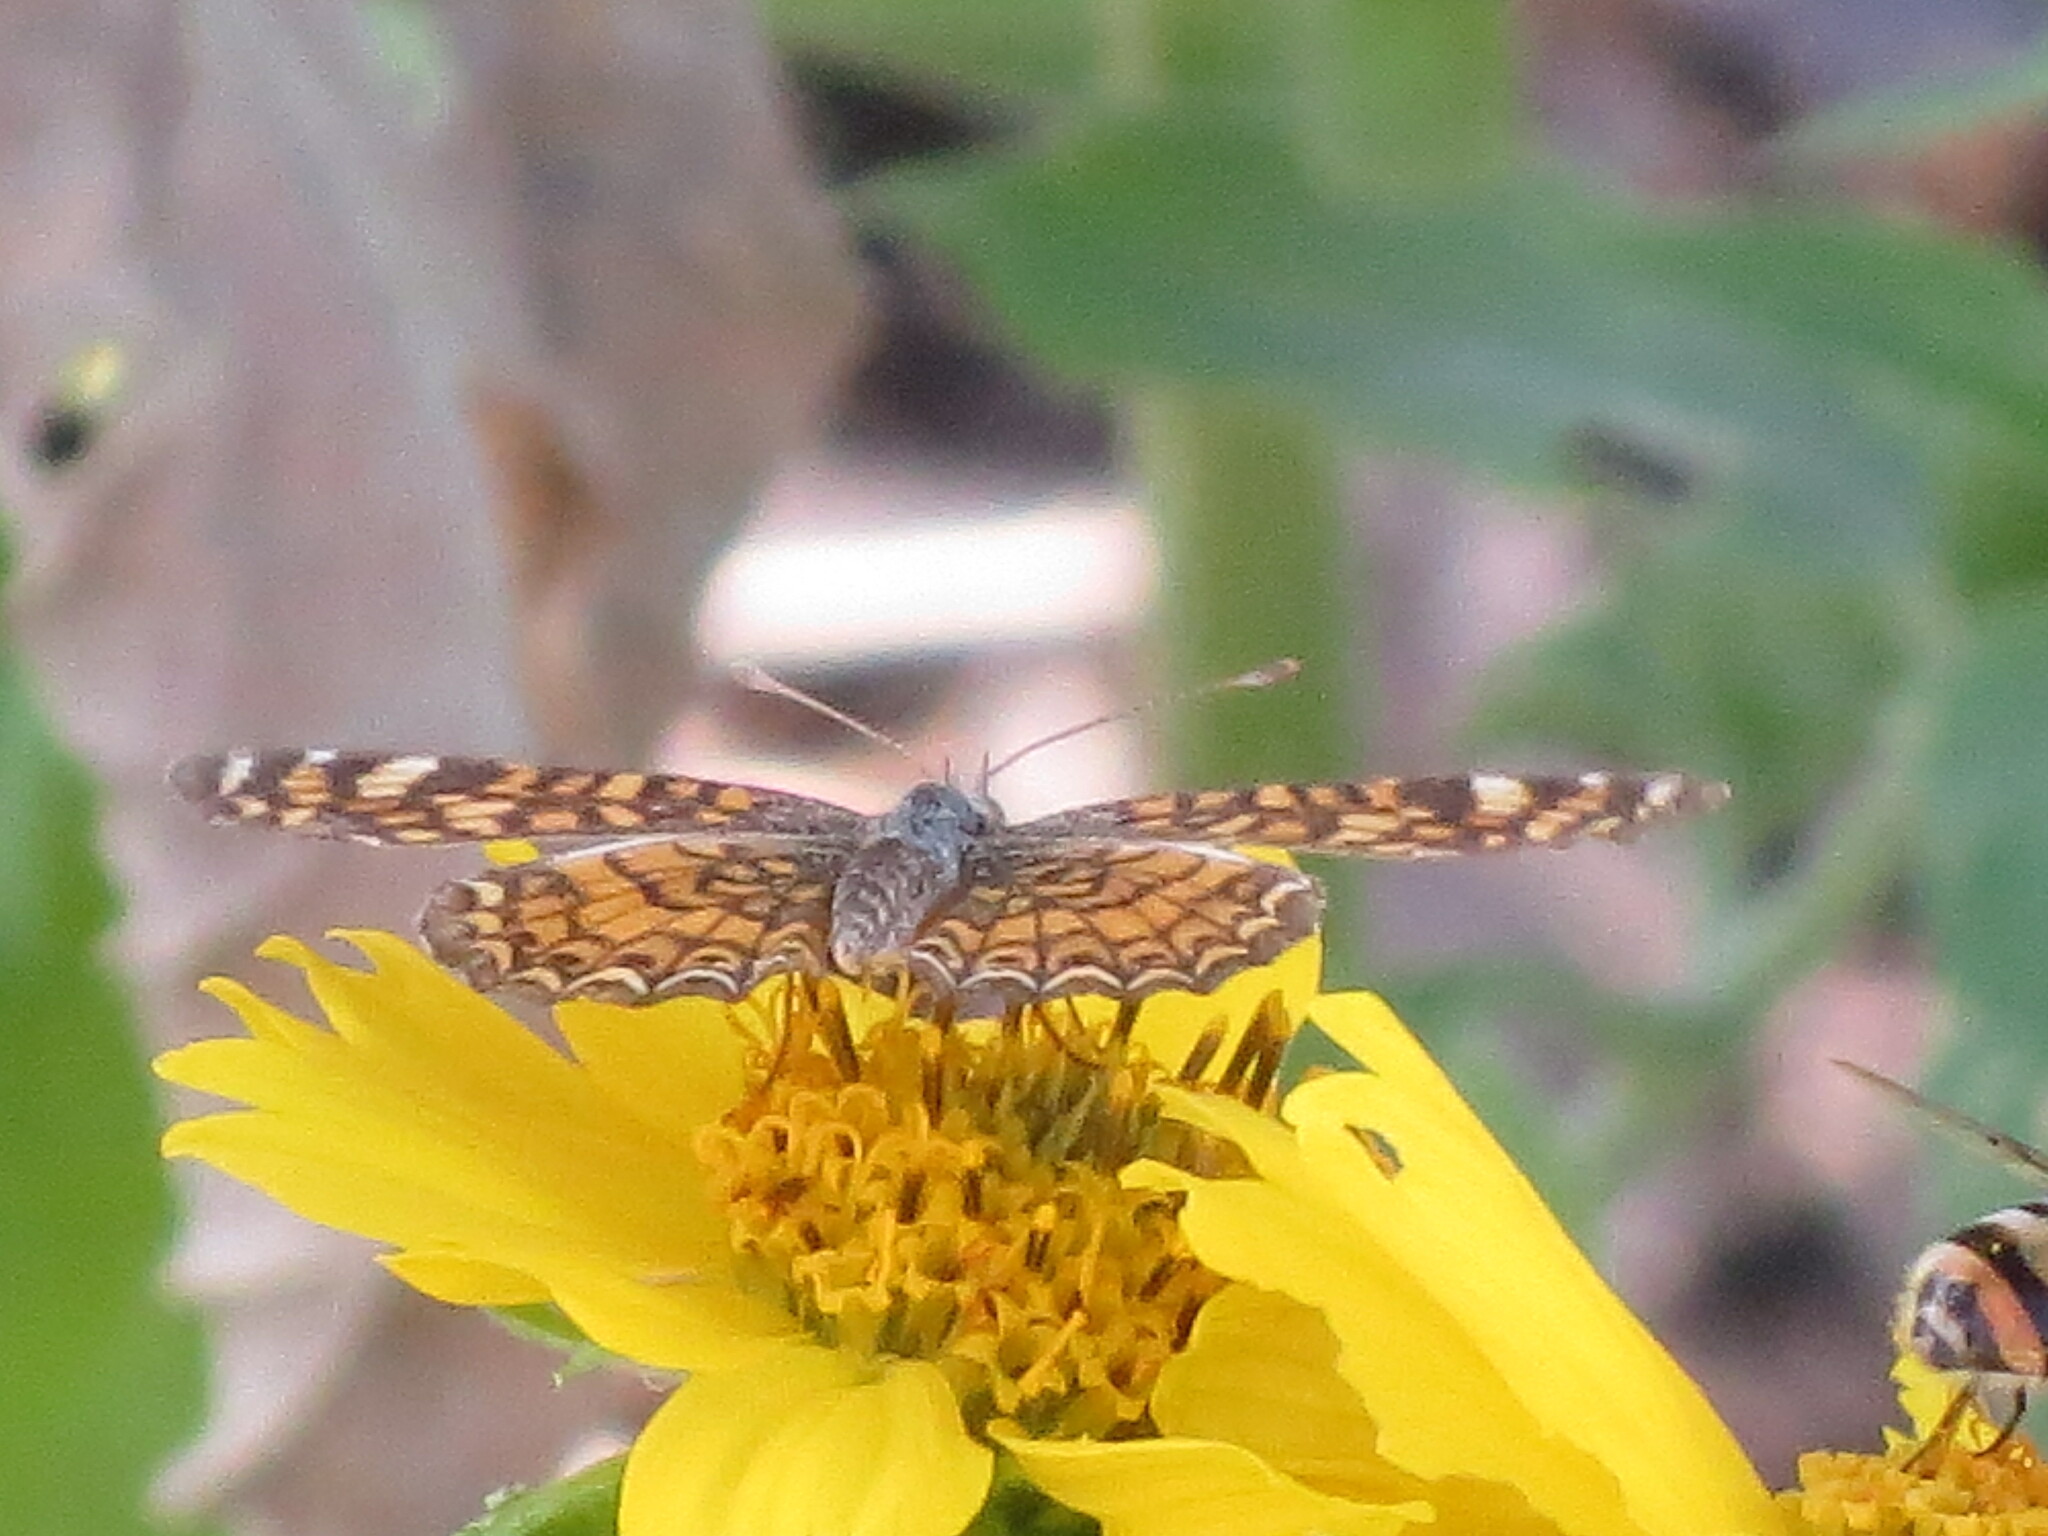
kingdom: Animalia
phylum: Arthropoda
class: Insecta
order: Lepidoptera
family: Nymphalidae
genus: Phyciodes
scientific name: Phyciodes vesta
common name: Vesta crescent
